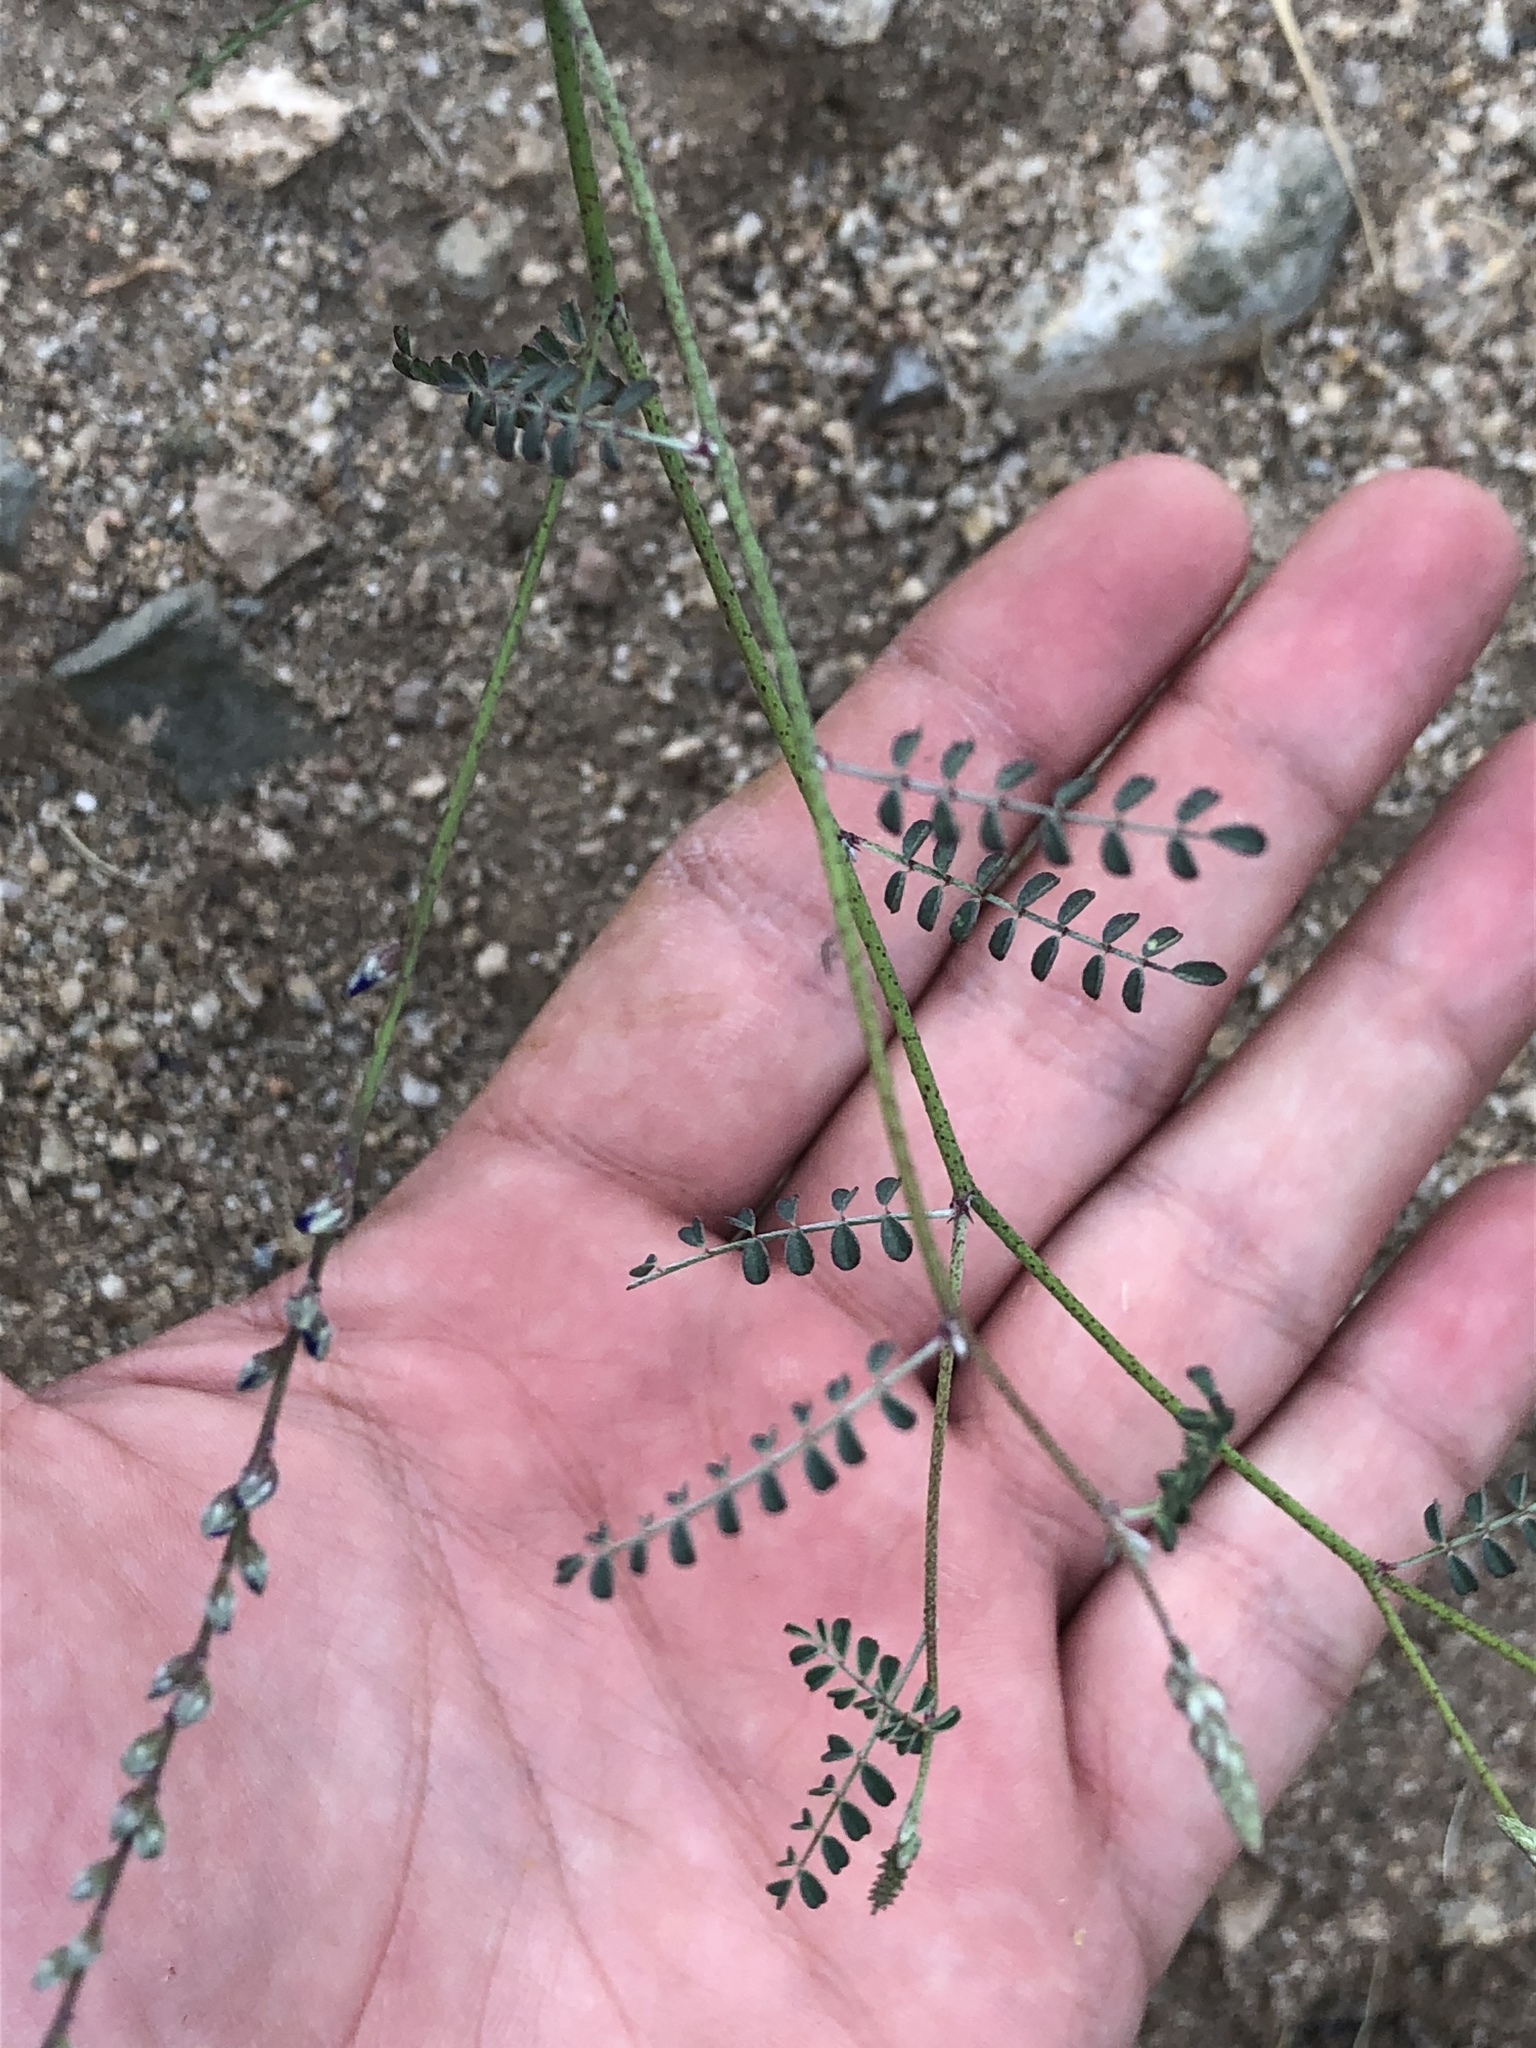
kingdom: Plantae
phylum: Tracheophyta
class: Magnoliopsida
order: Fabales
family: Fabaceae
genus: Marina
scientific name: Marina parryi
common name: Parry's marina
